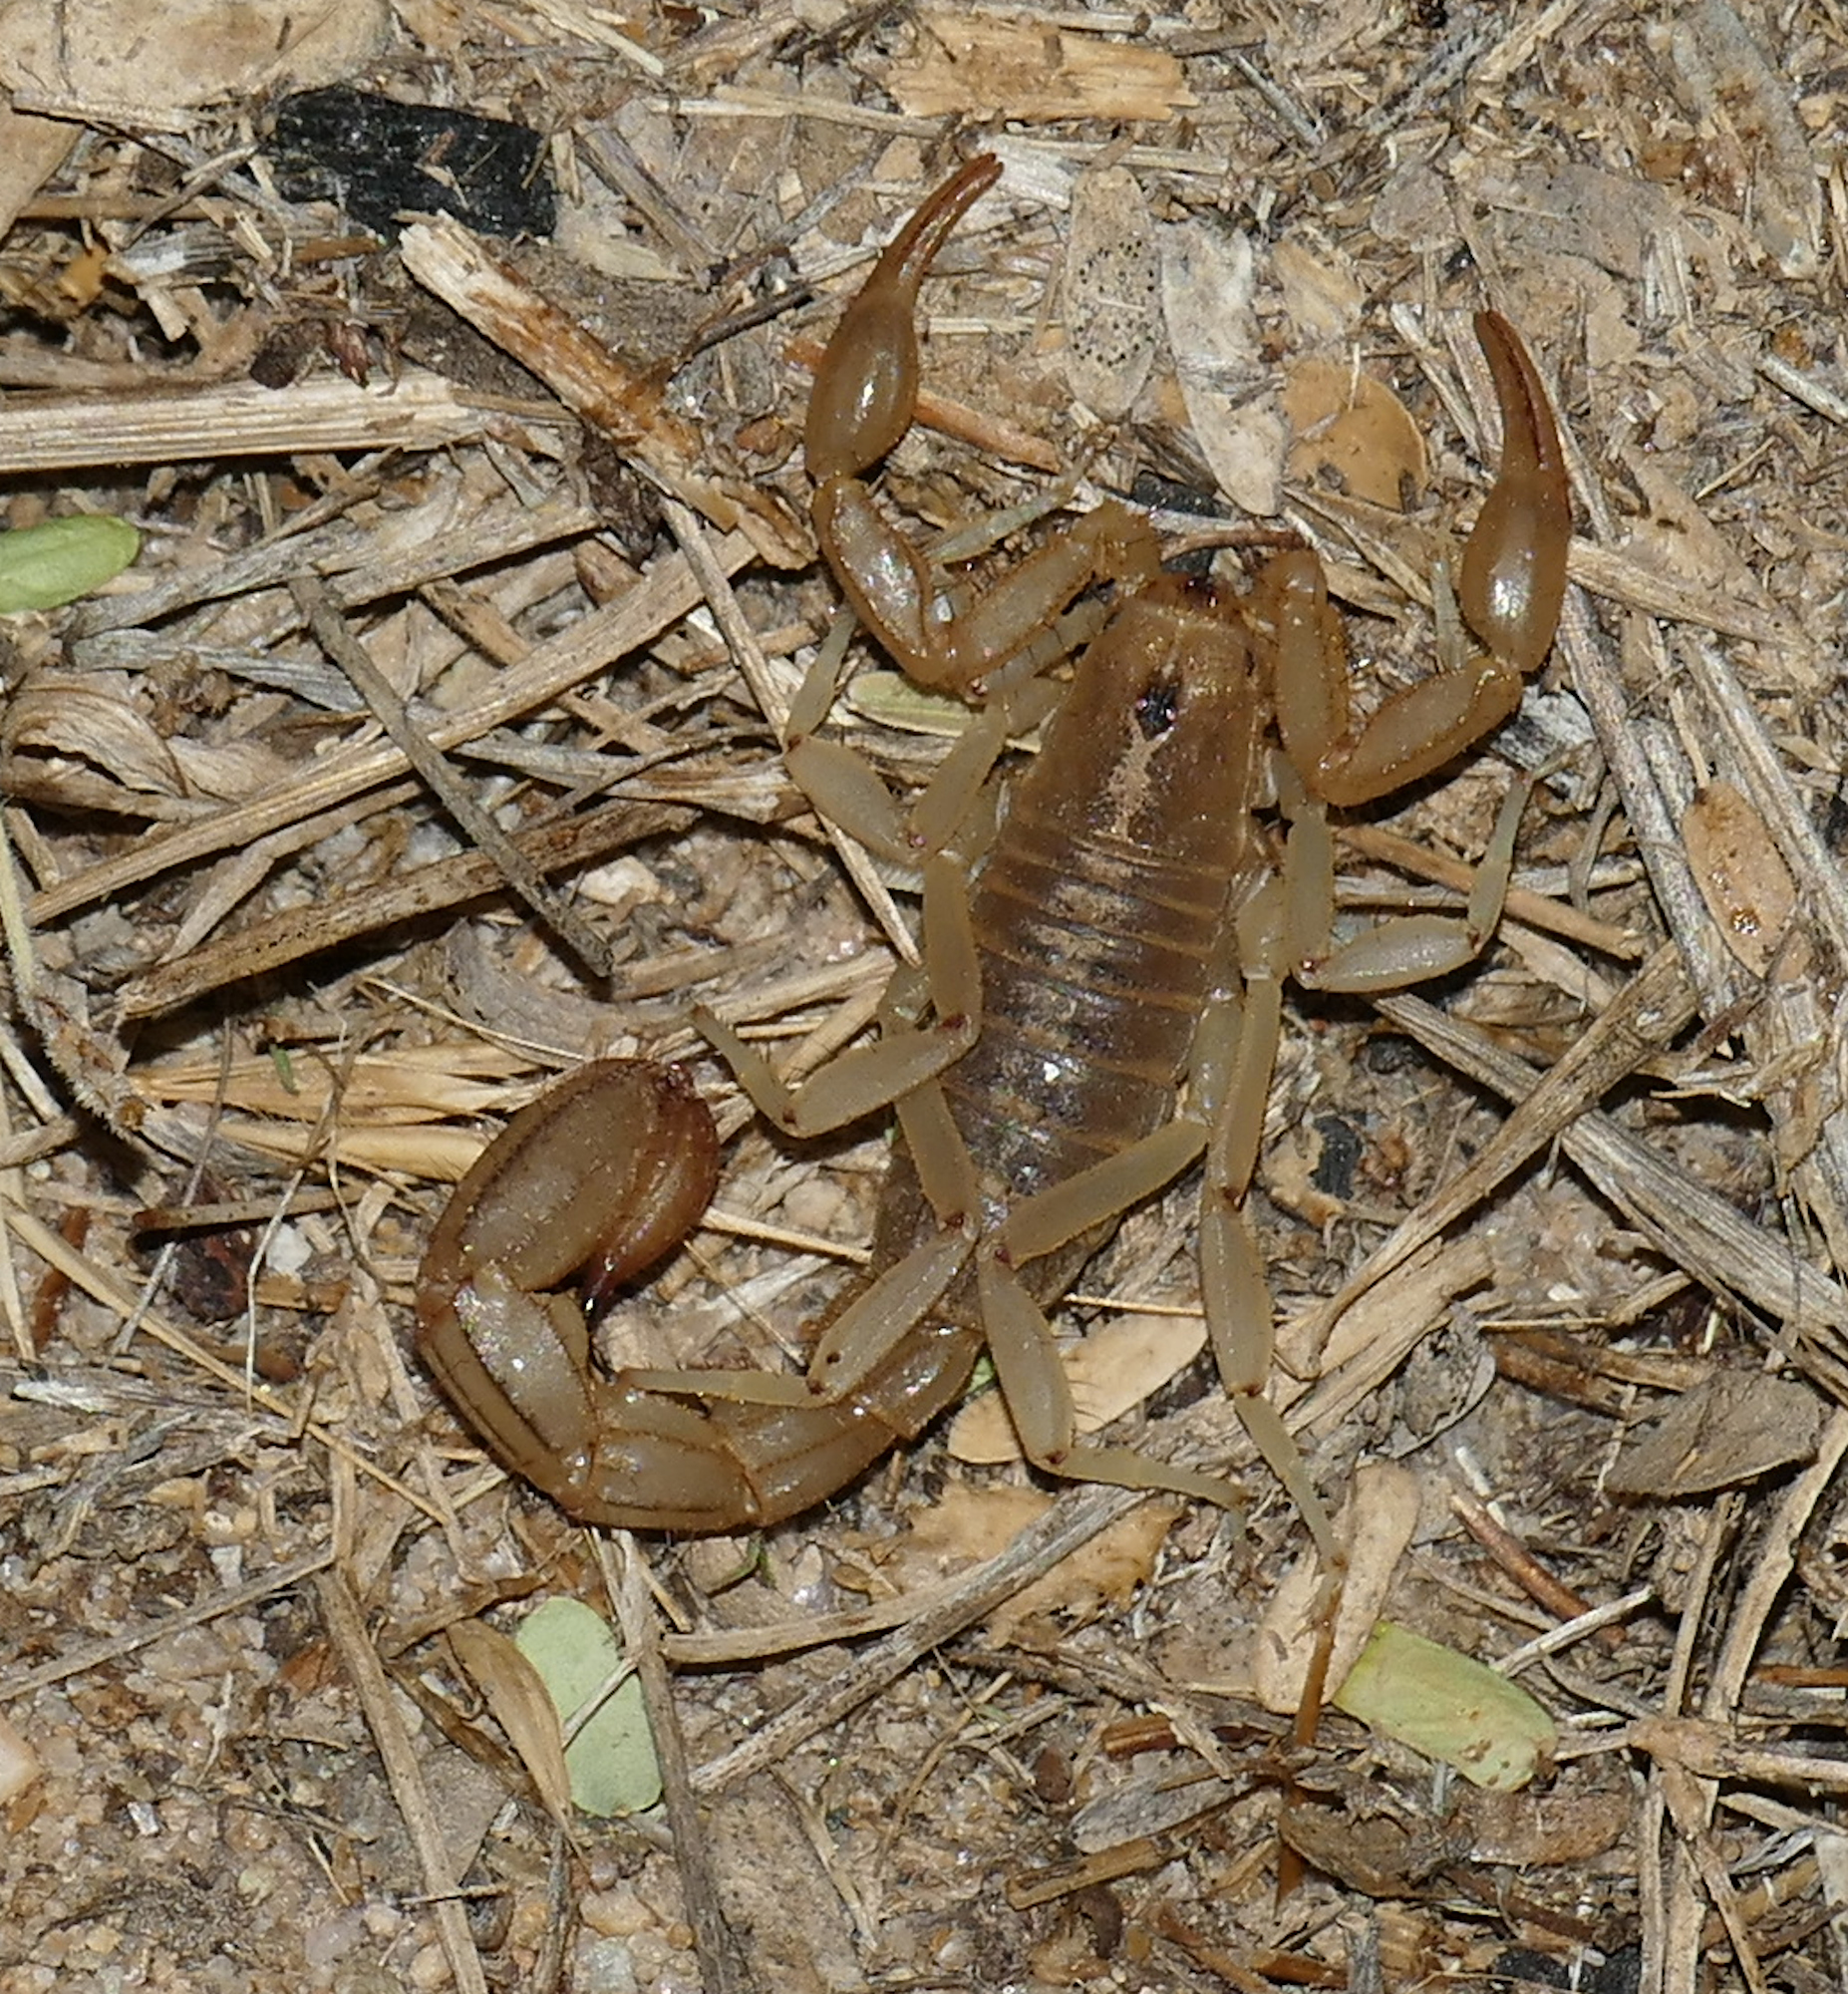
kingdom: Animalia
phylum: Arthropoda
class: Arachnida
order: Scorpiones
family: Vaejovidae
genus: Paravaejovis
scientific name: Paravaejovis spinigerus
